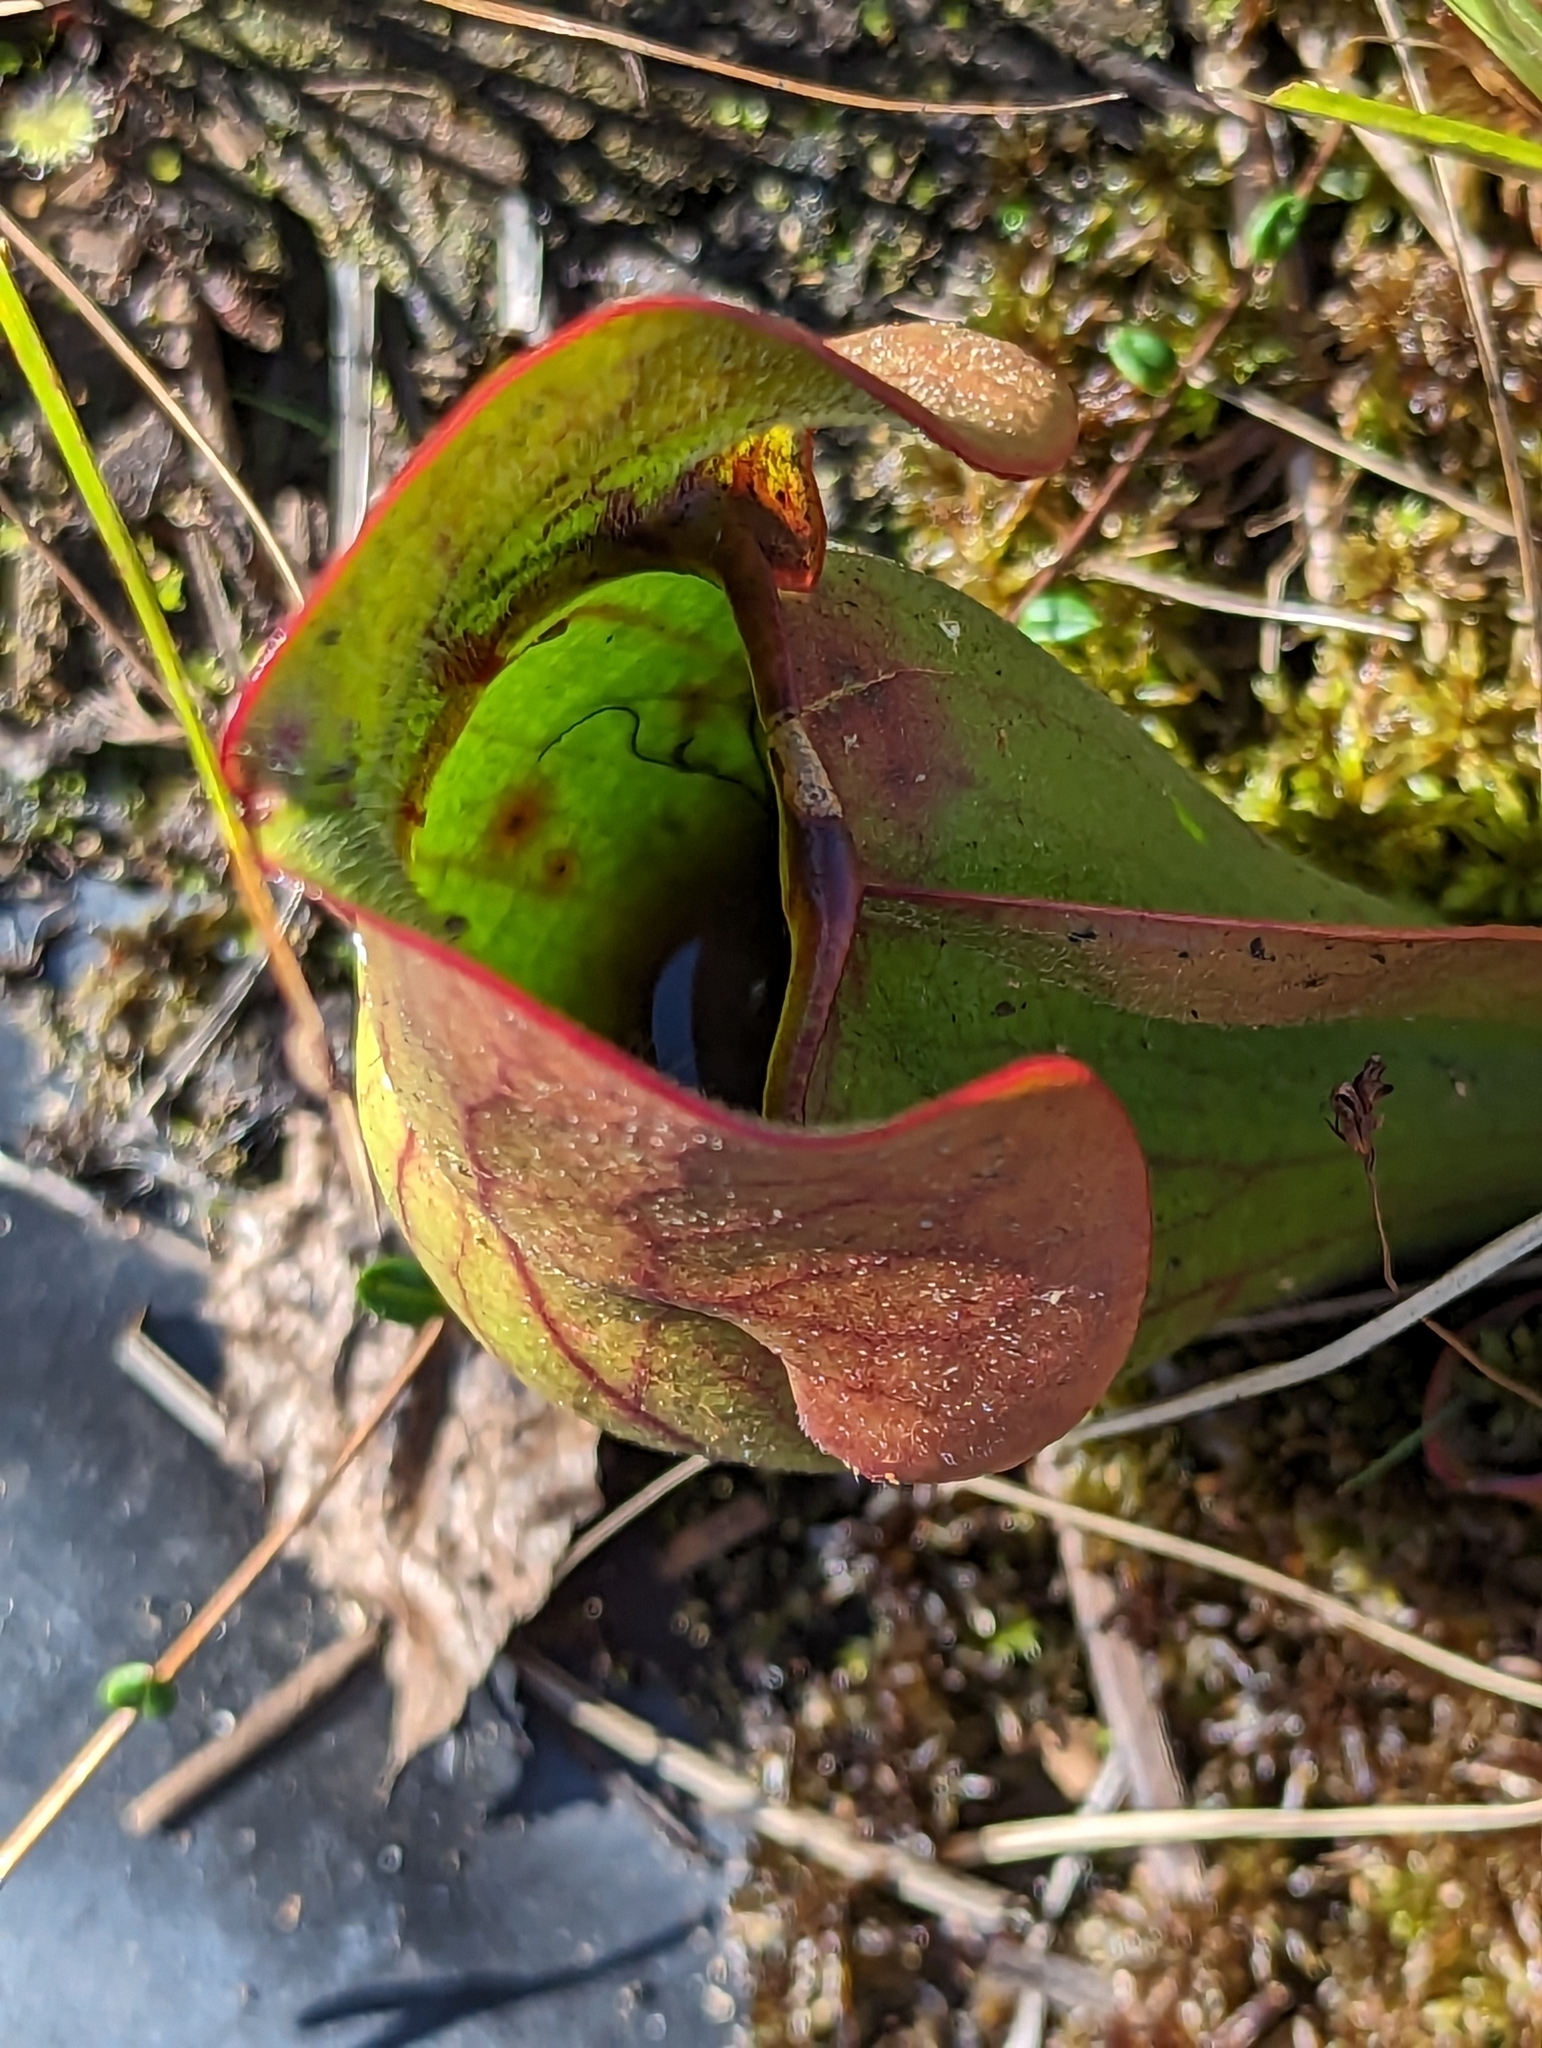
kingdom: Plantae
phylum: Tracheophyta
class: Magnoliopsida
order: Ericales
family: Sarraceniaceae
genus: Sarracenia
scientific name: Sarracenia purpurea
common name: Pitcherplant
